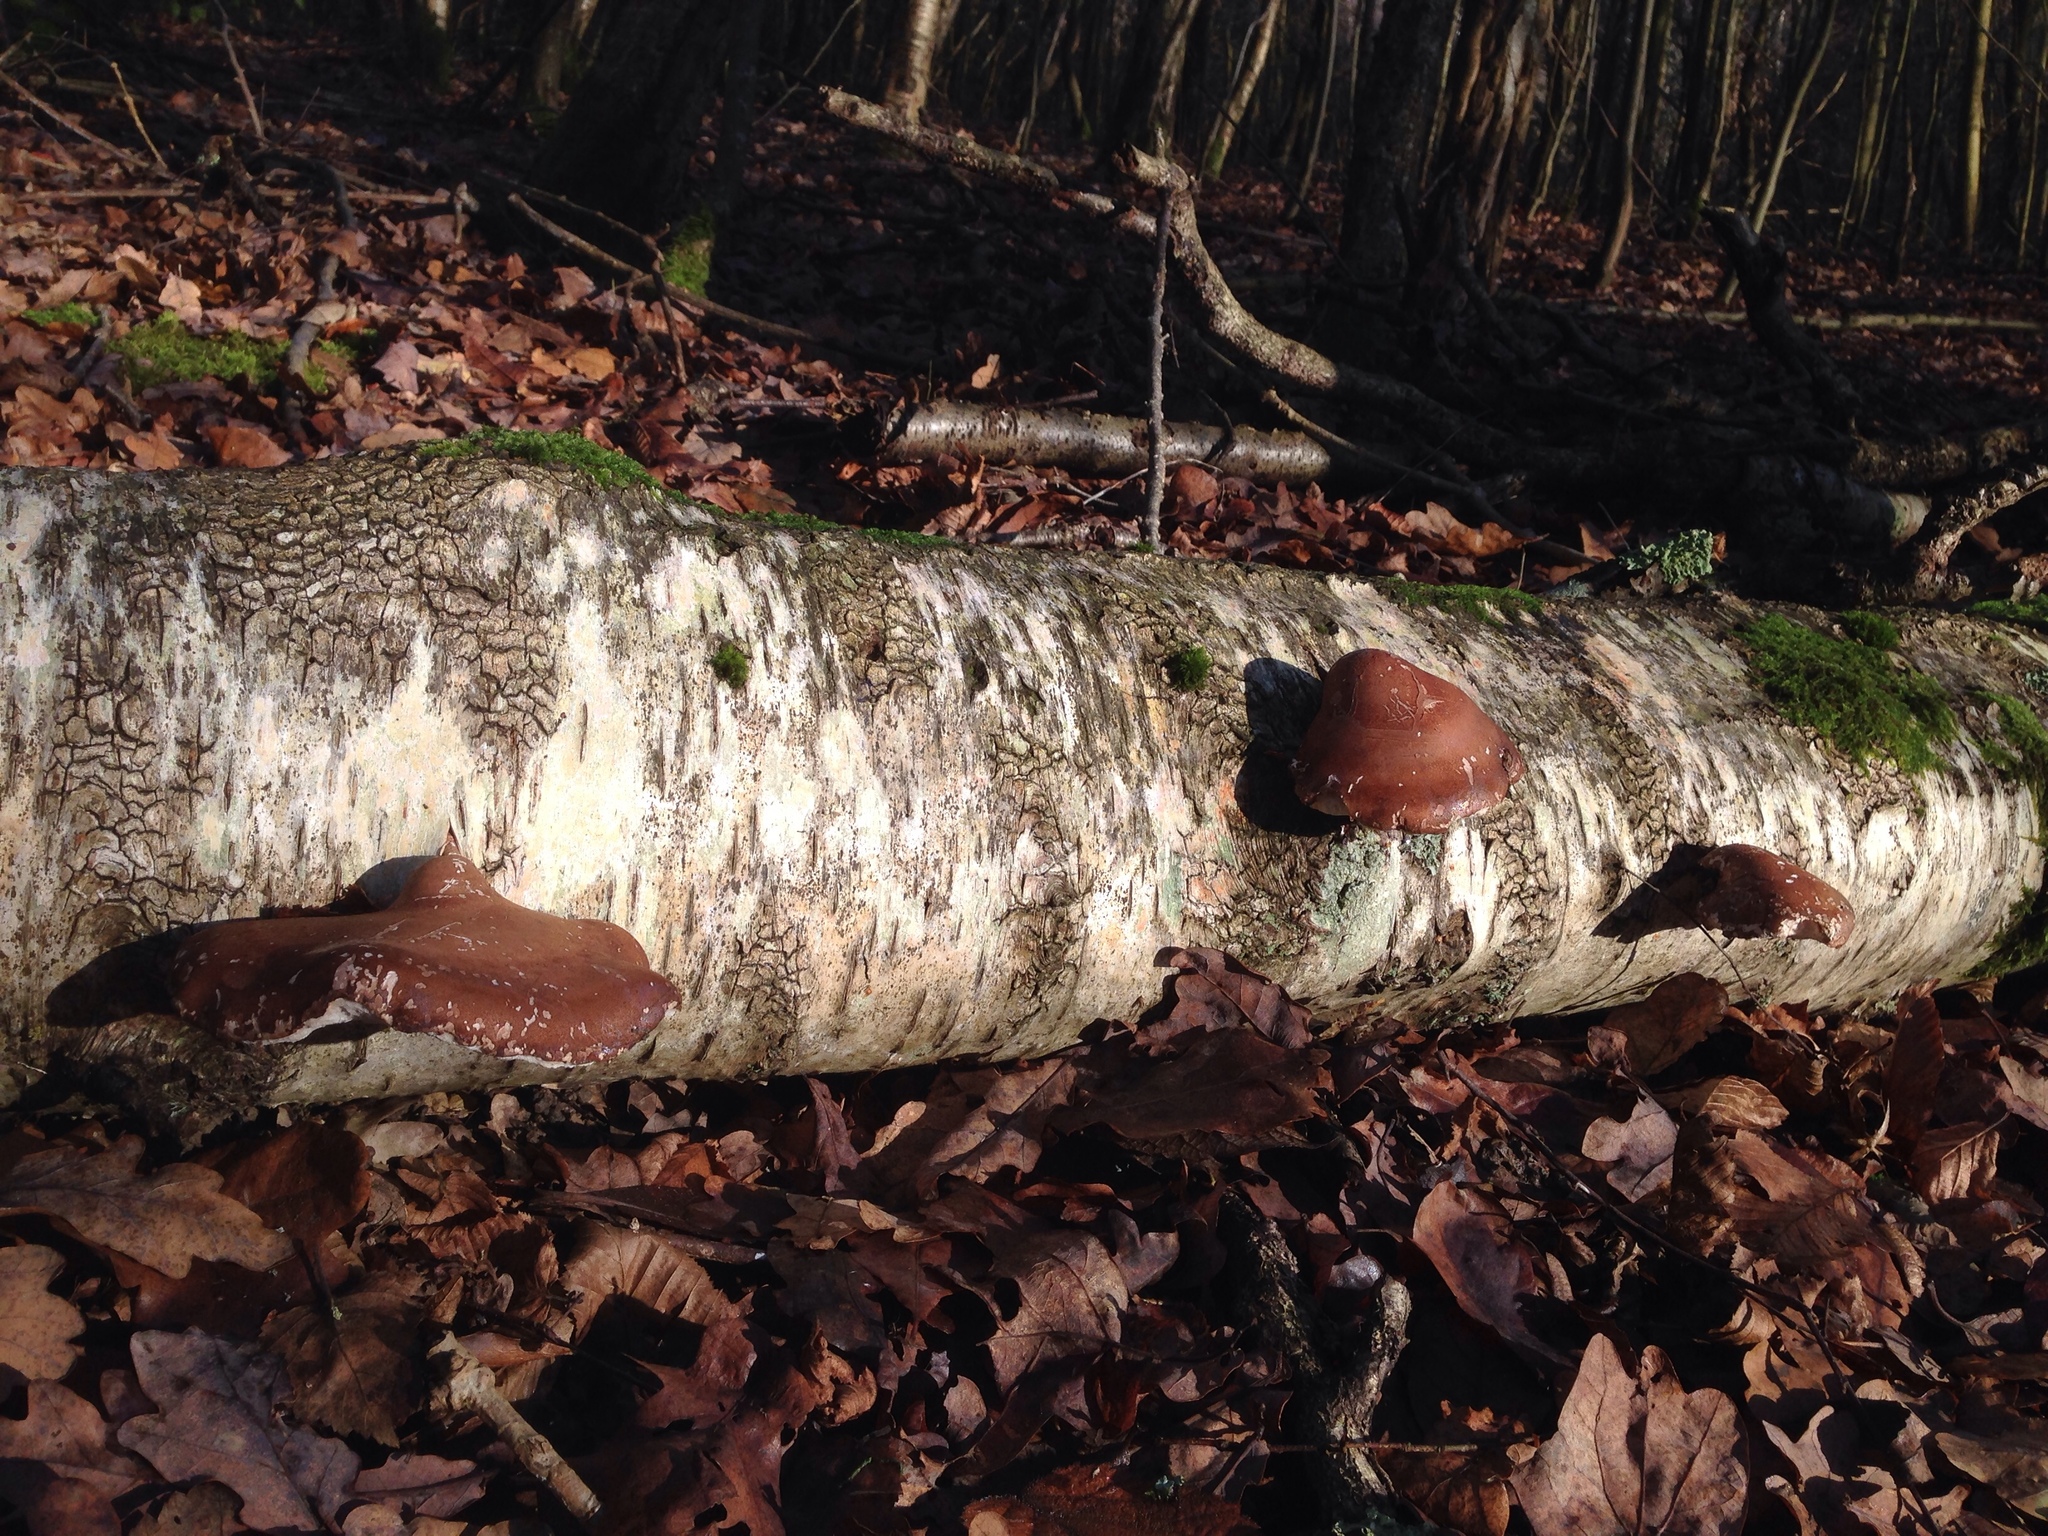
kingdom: Fungi
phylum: Basidiomycota
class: Agaricomycetes
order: Polyporales
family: Fomitopsidaceae
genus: Fomitopsis
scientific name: Fomitopsis betulina
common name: Birch polypore
